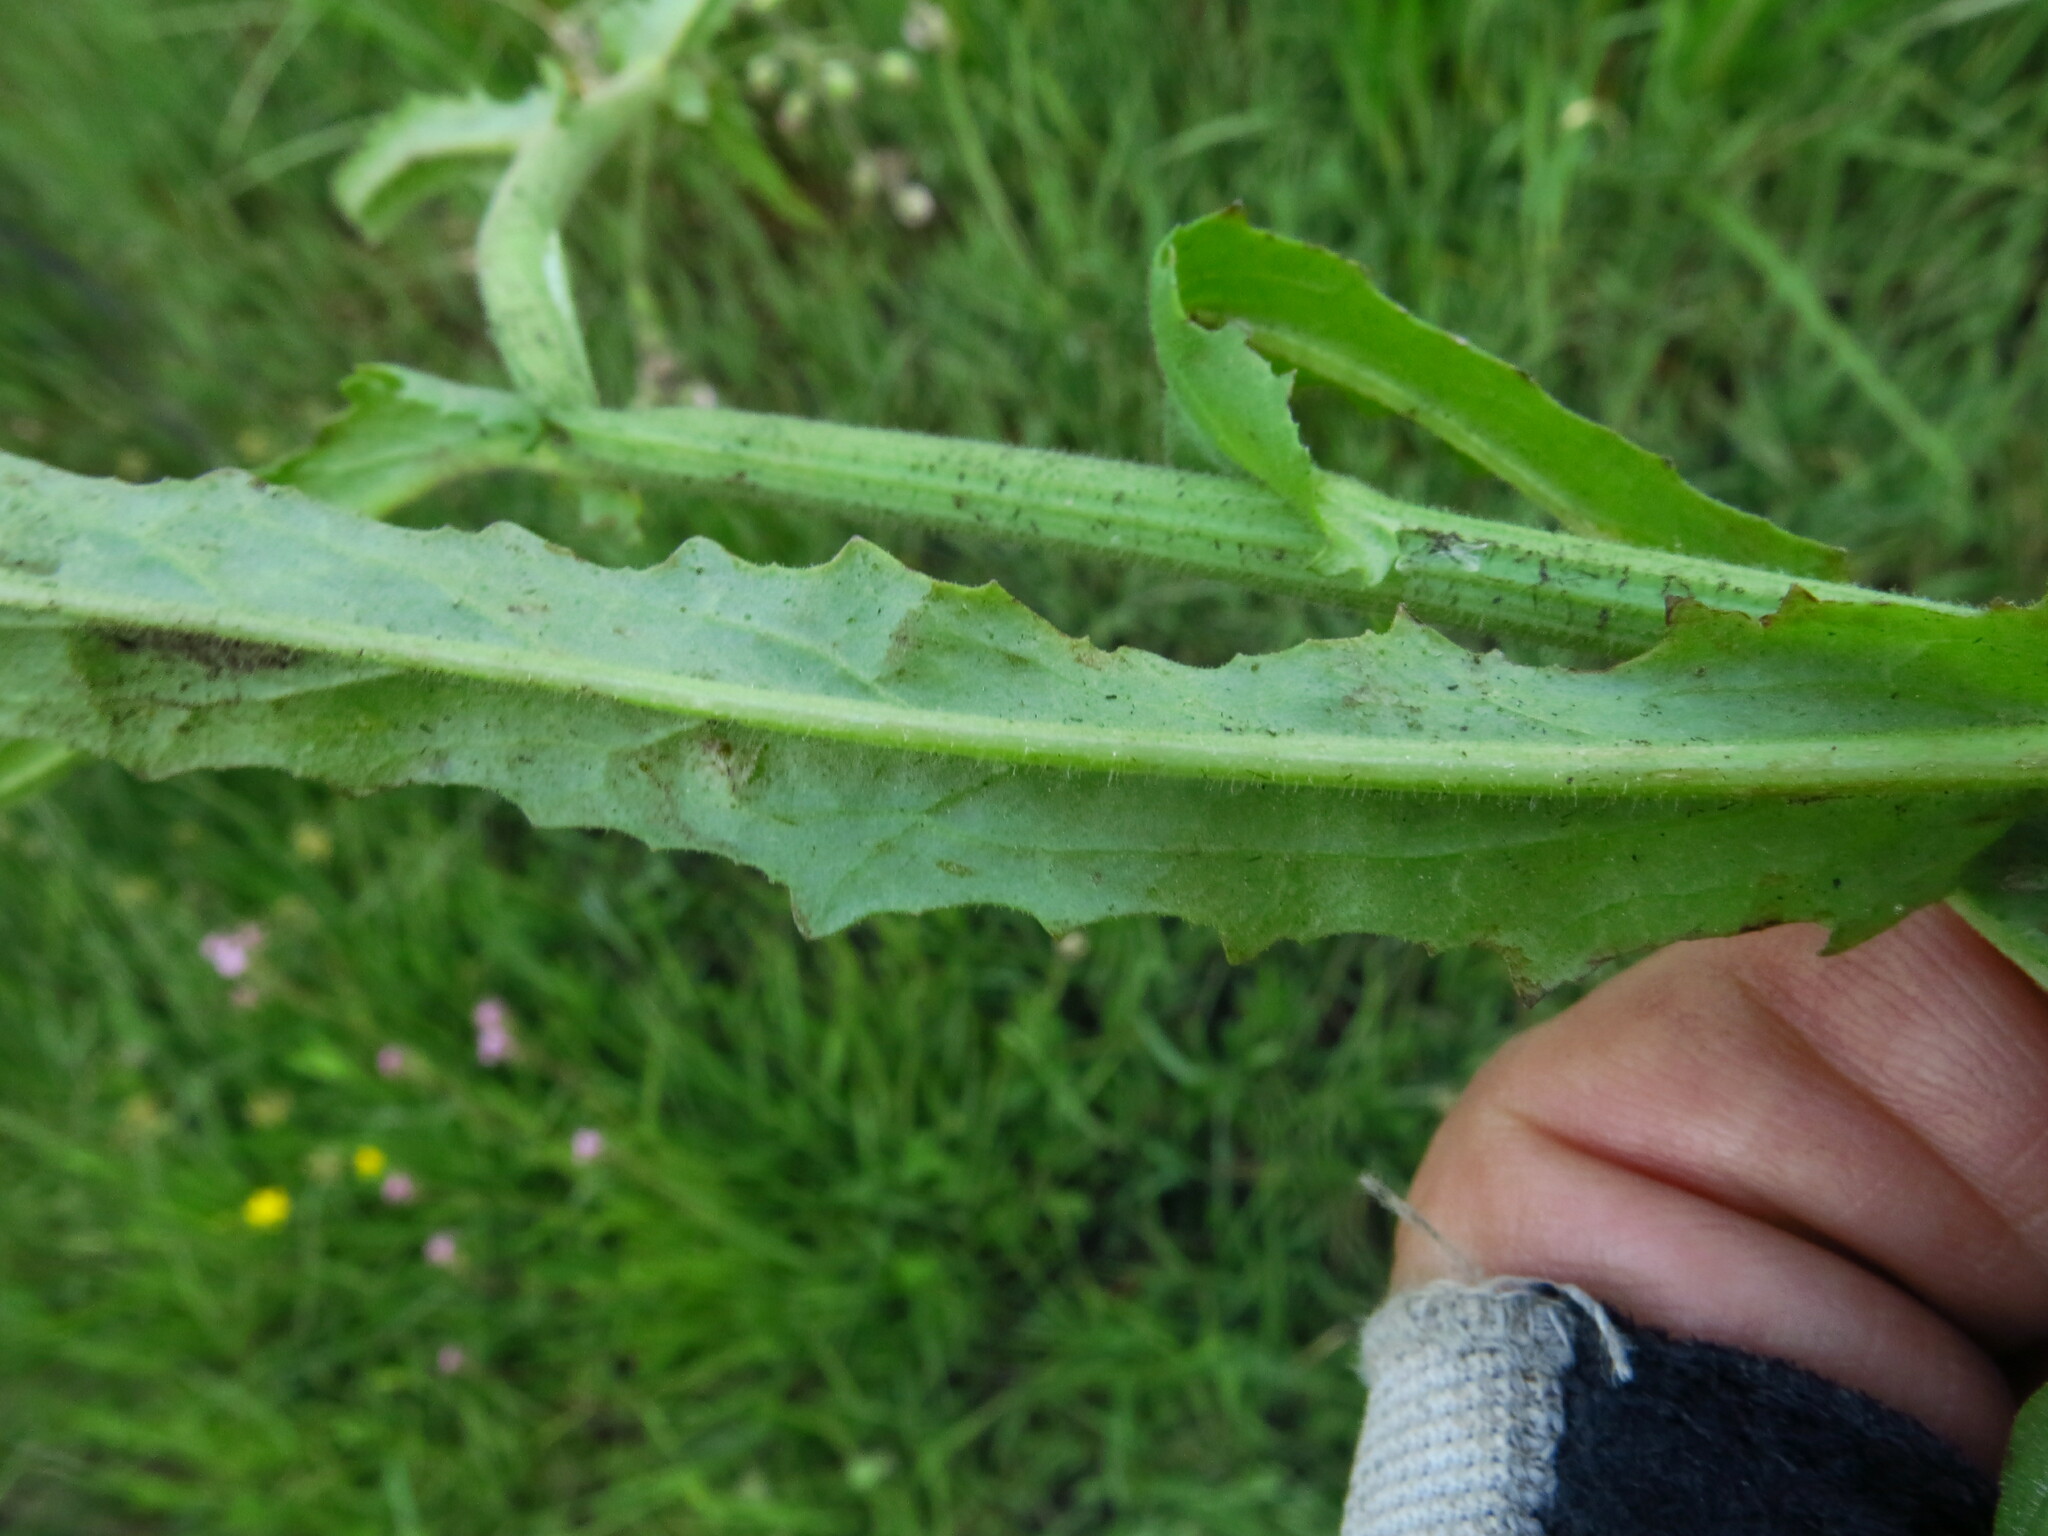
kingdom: Plantae
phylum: Tracheophyta
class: Magnoliopsida
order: Asterales
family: Asteraceae
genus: Hilliardiella
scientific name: Hilliardiella hirsuta
